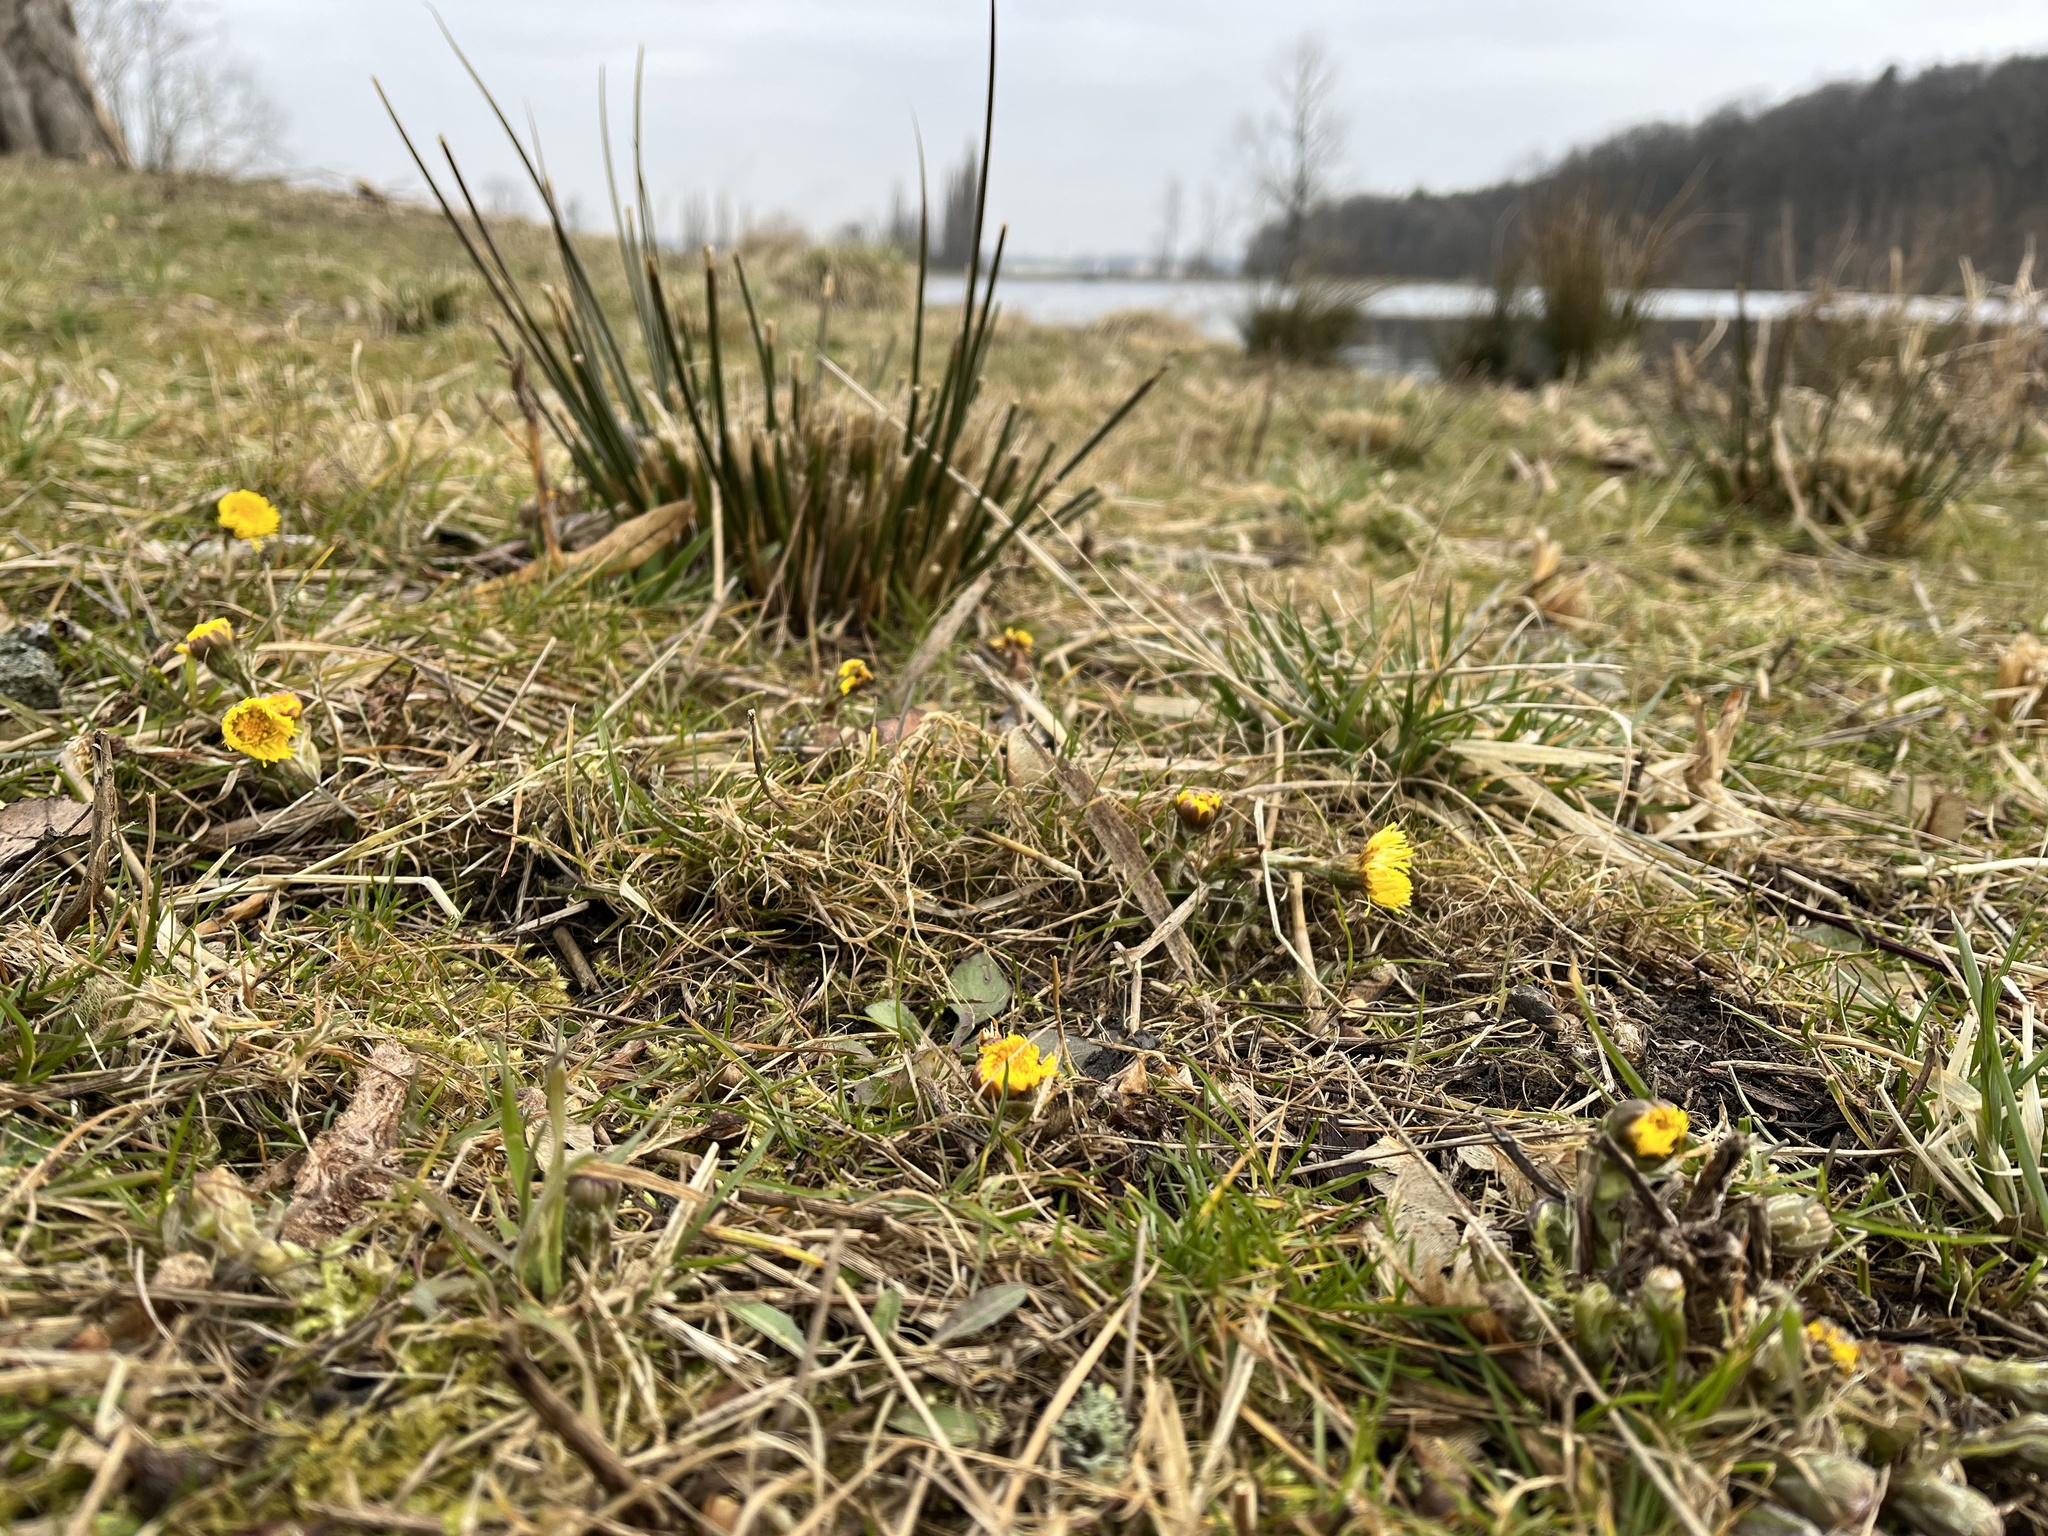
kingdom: Plantae
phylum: Tracheophyta
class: Magnoliopsida
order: Asterales
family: Asteraceae
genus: Tussilago
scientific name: Tussilago farfara
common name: Coltsfoot
